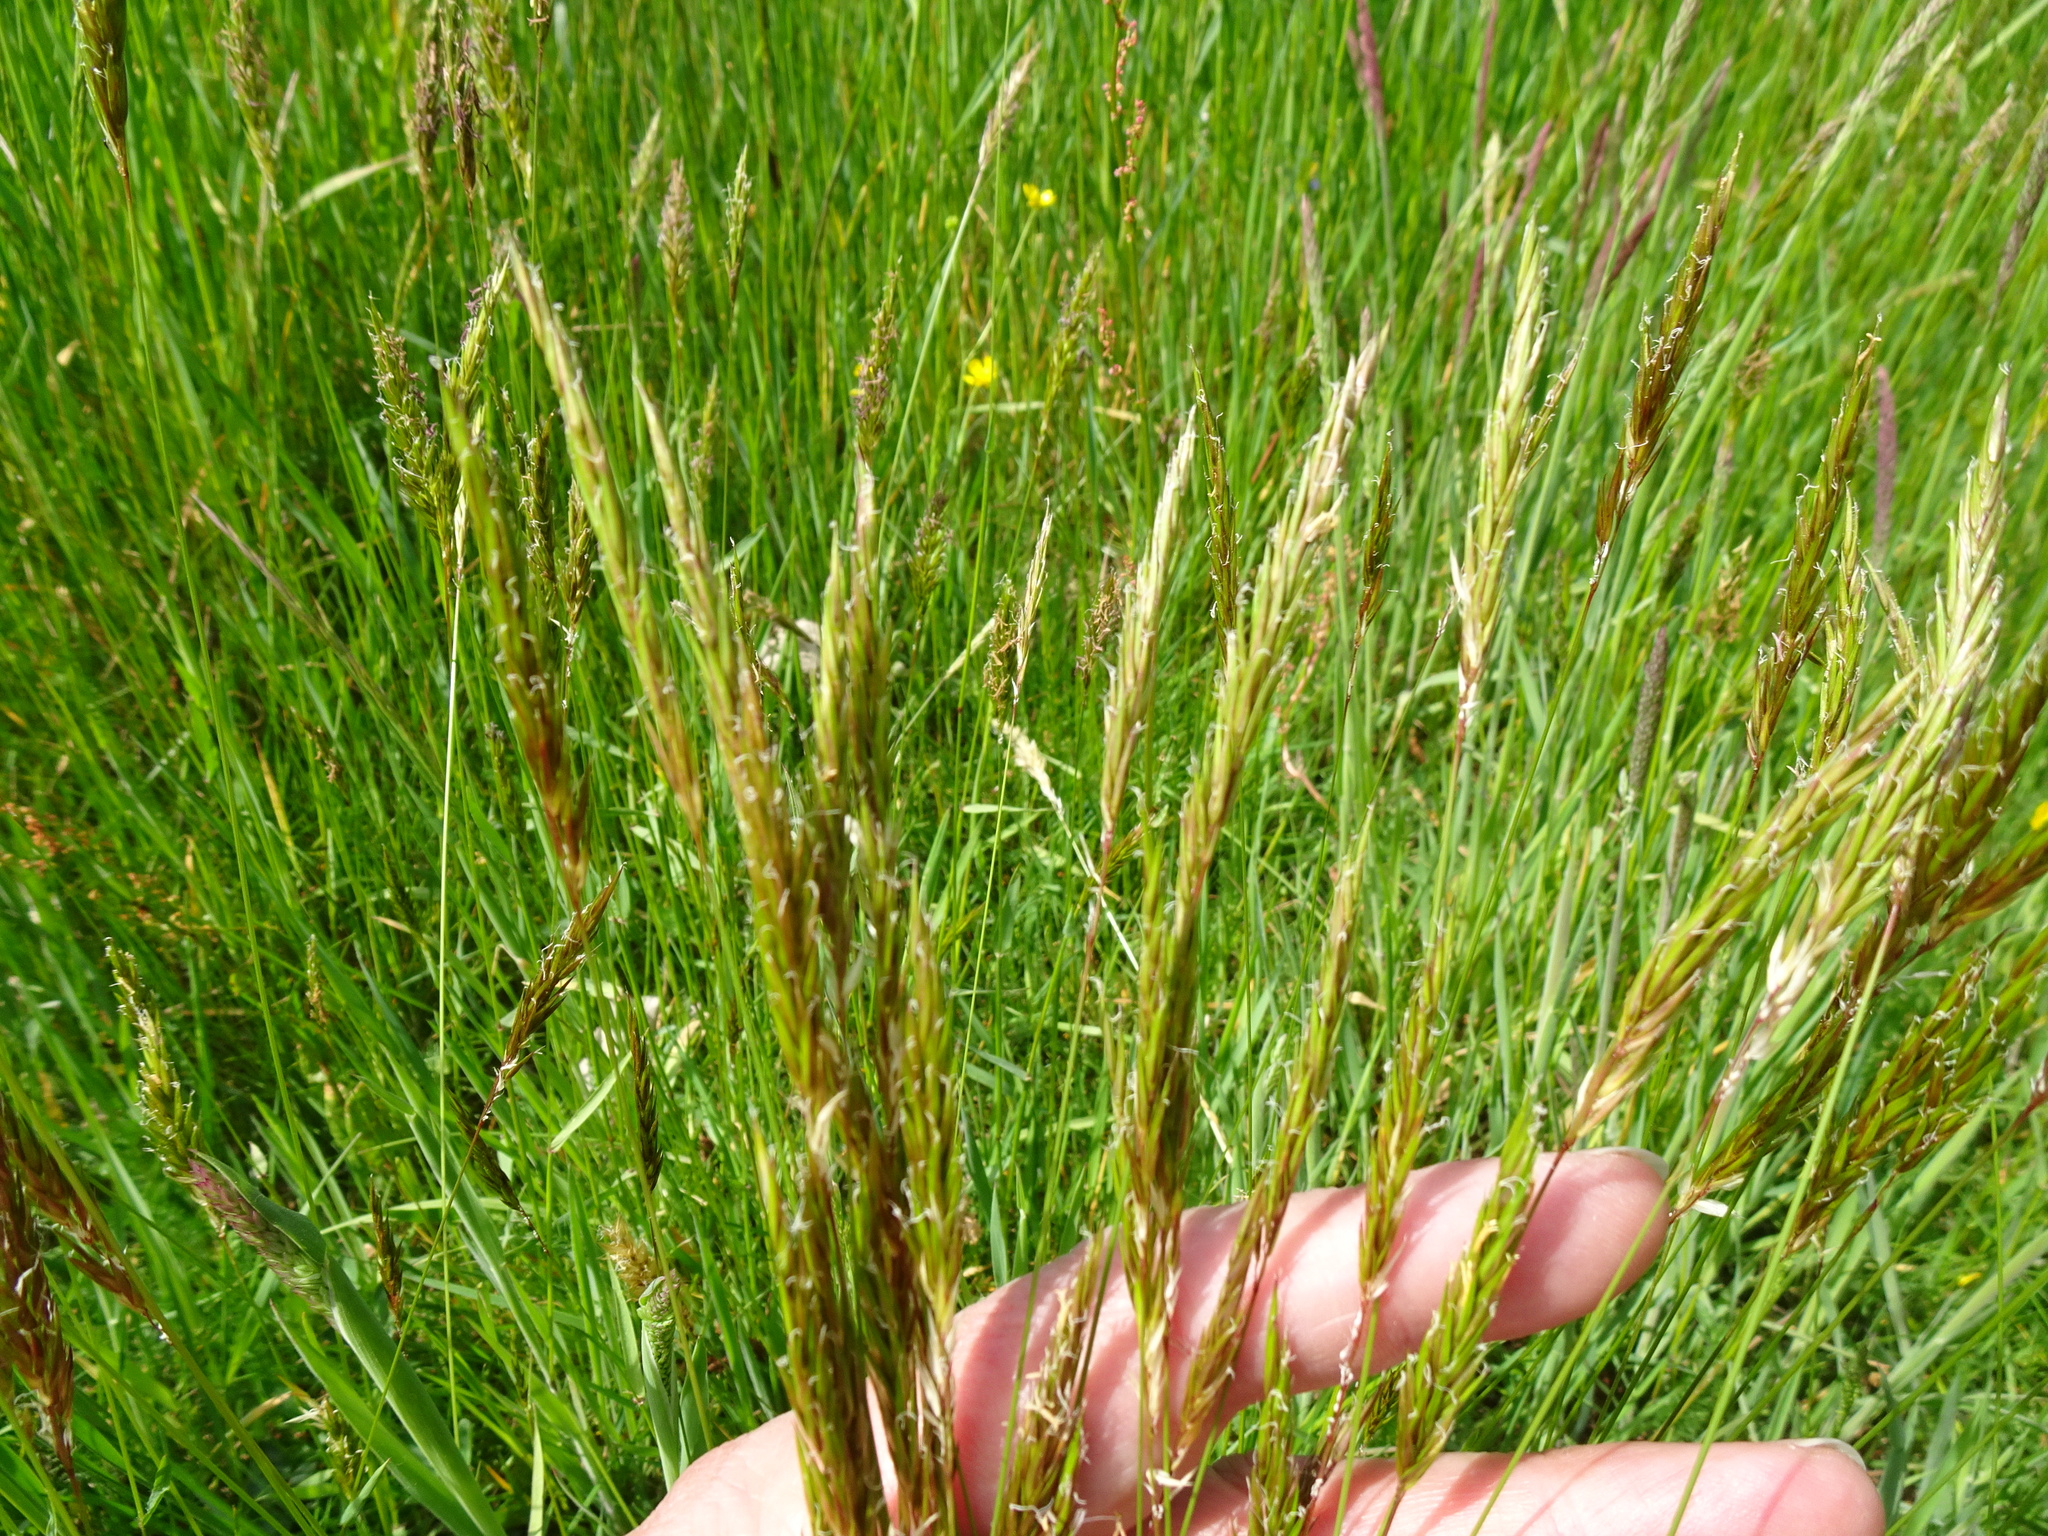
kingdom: Plantae
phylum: Tracheophyta
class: Liliopsida
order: Poales
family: Poaceae
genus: Anthoxanthum
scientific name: Anthoxanthum odoratum
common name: Sweet vernalgrass
